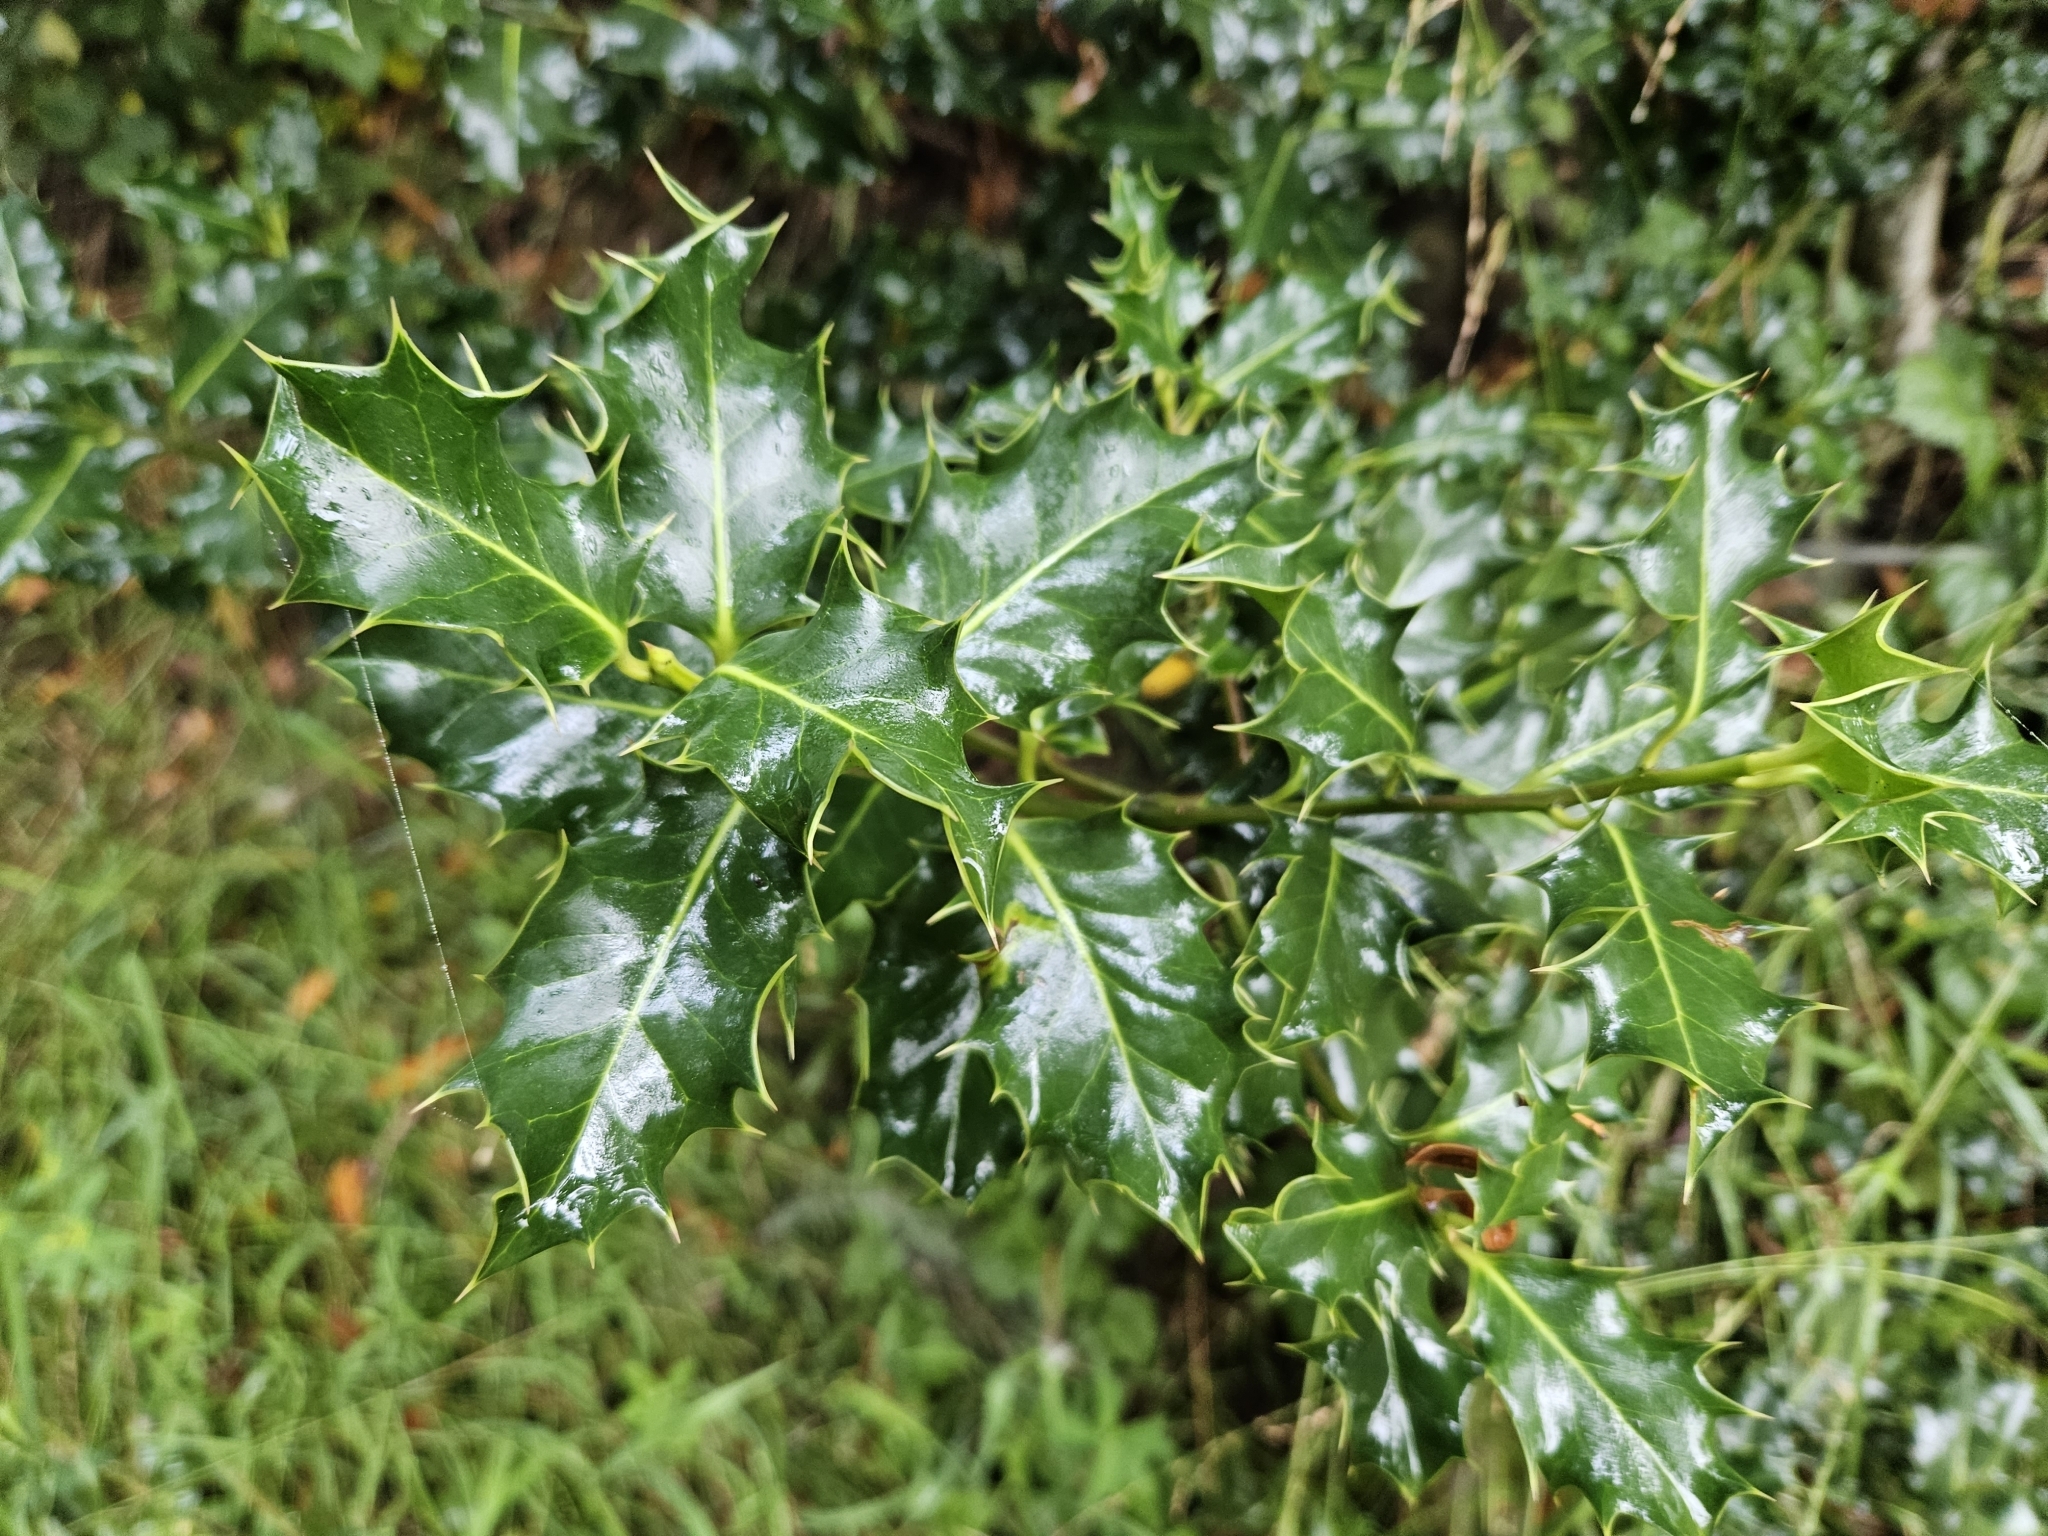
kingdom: Plantae
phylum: Tracheophyta
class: Magnoliopsida
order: Aquifoliales
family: Aquifoliaceae
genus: Ilex
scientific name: Ilex aquifolium
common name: English holly
